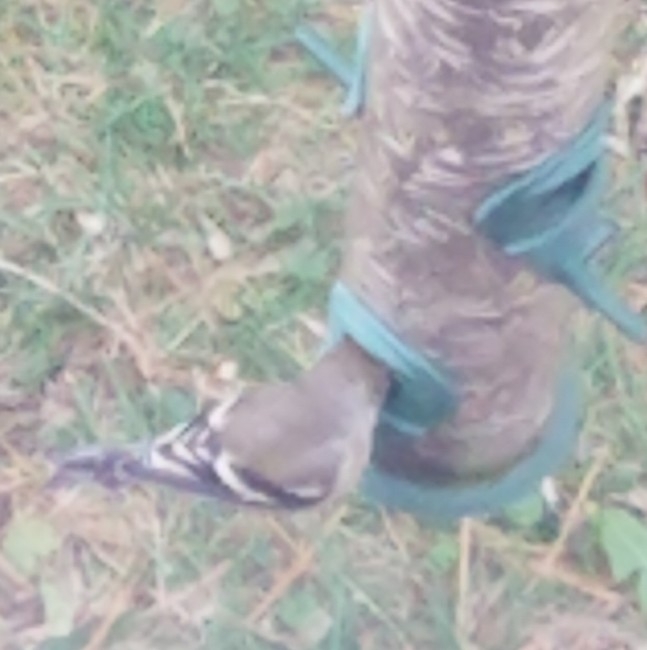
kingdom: Animalia
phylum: Chordata
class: Aves
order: Passeriformes
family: Fringillidae
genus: Spinus
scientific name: Spinus tristis
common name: American goldfinch
